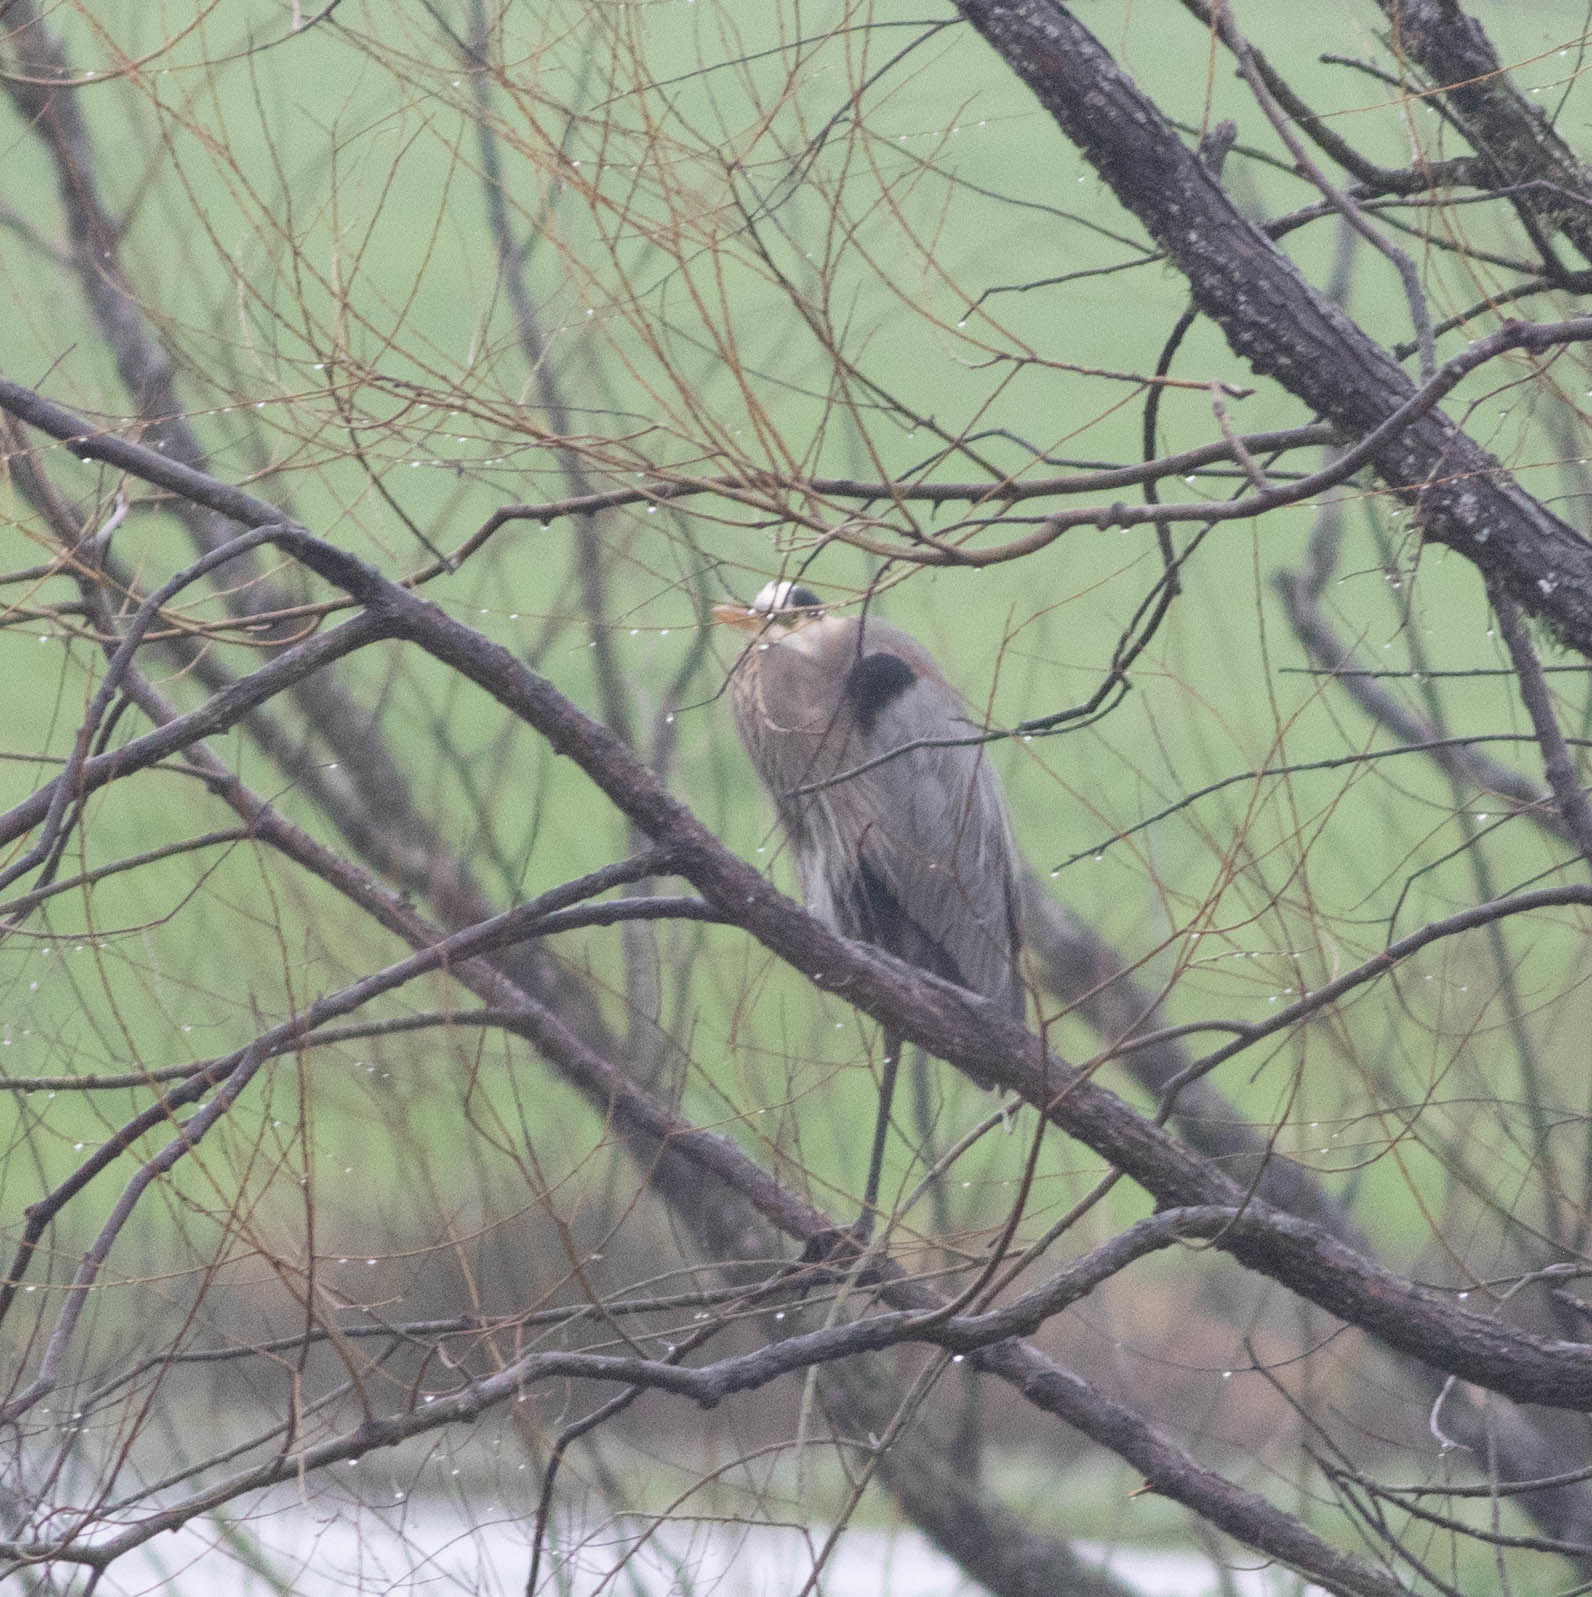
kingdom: Animalia
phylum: Chordata
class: Aves
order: Pelecaniformes
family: Ardeidae
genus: Ardea
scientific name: Ardea herodias
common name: Great blue heron
